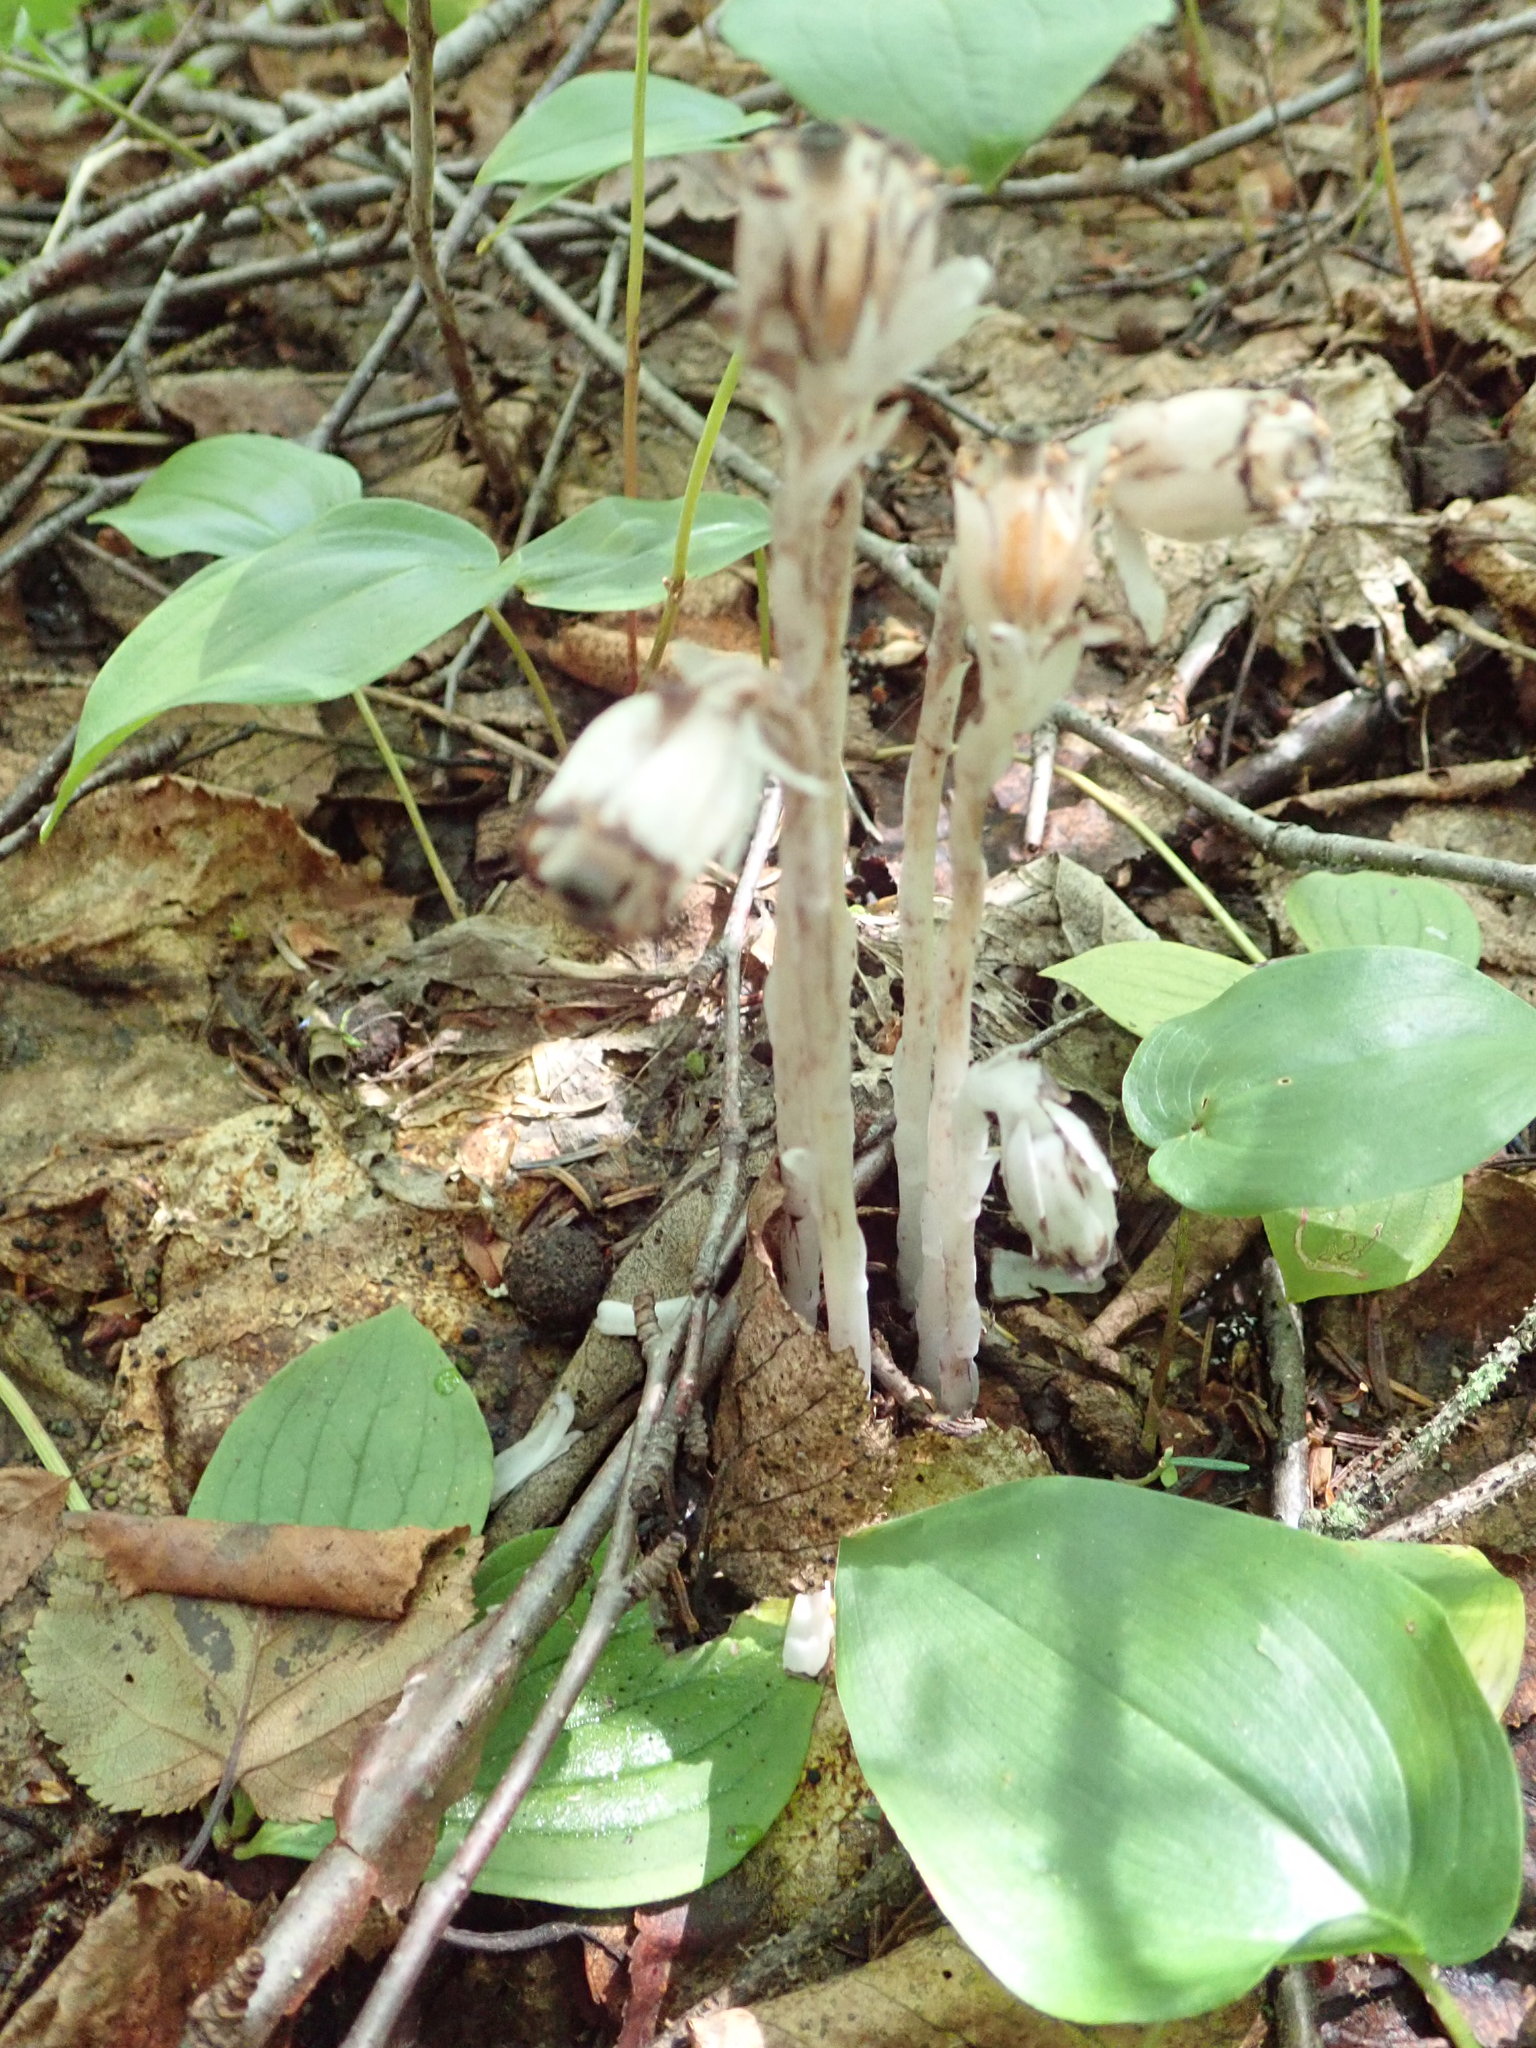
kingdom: Plantae
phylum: Tracheophyta
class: Magnoliopsida
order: Ericales
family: Ericaceae
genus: Monotropa
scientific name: Monotropa uniflora
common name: Convulsion root
